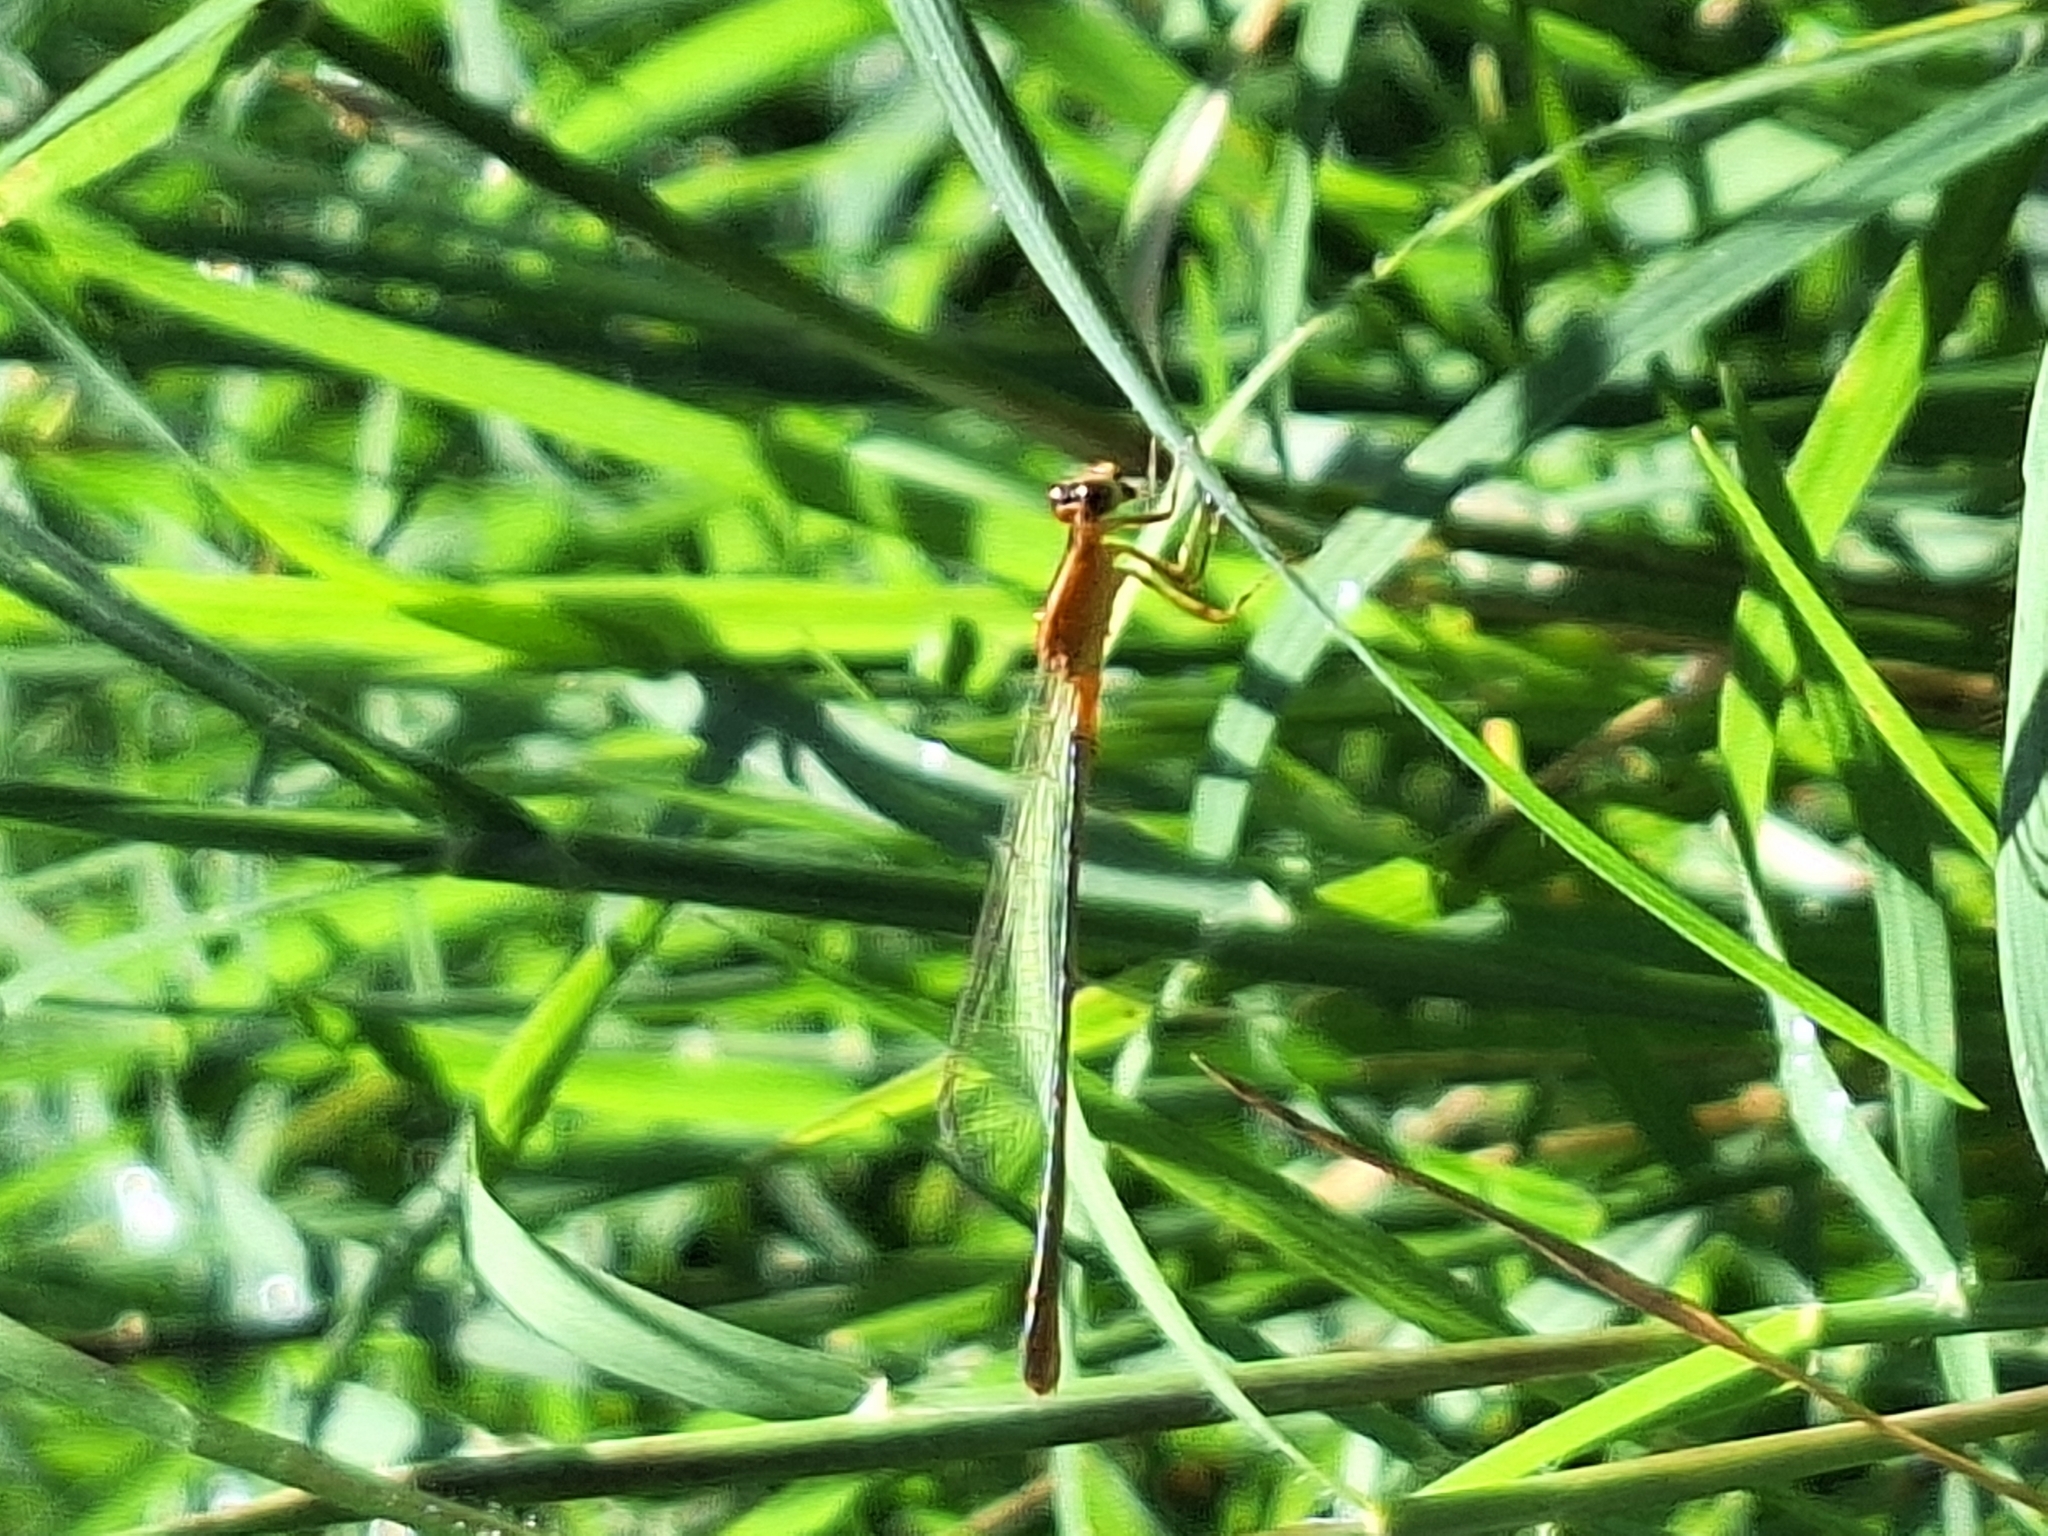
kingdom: Animalia
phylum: Arthropoda
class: Insecta
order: Odonata
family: Coenagrionidae
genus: Ischnura
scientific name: Ischnura fluviatilis
